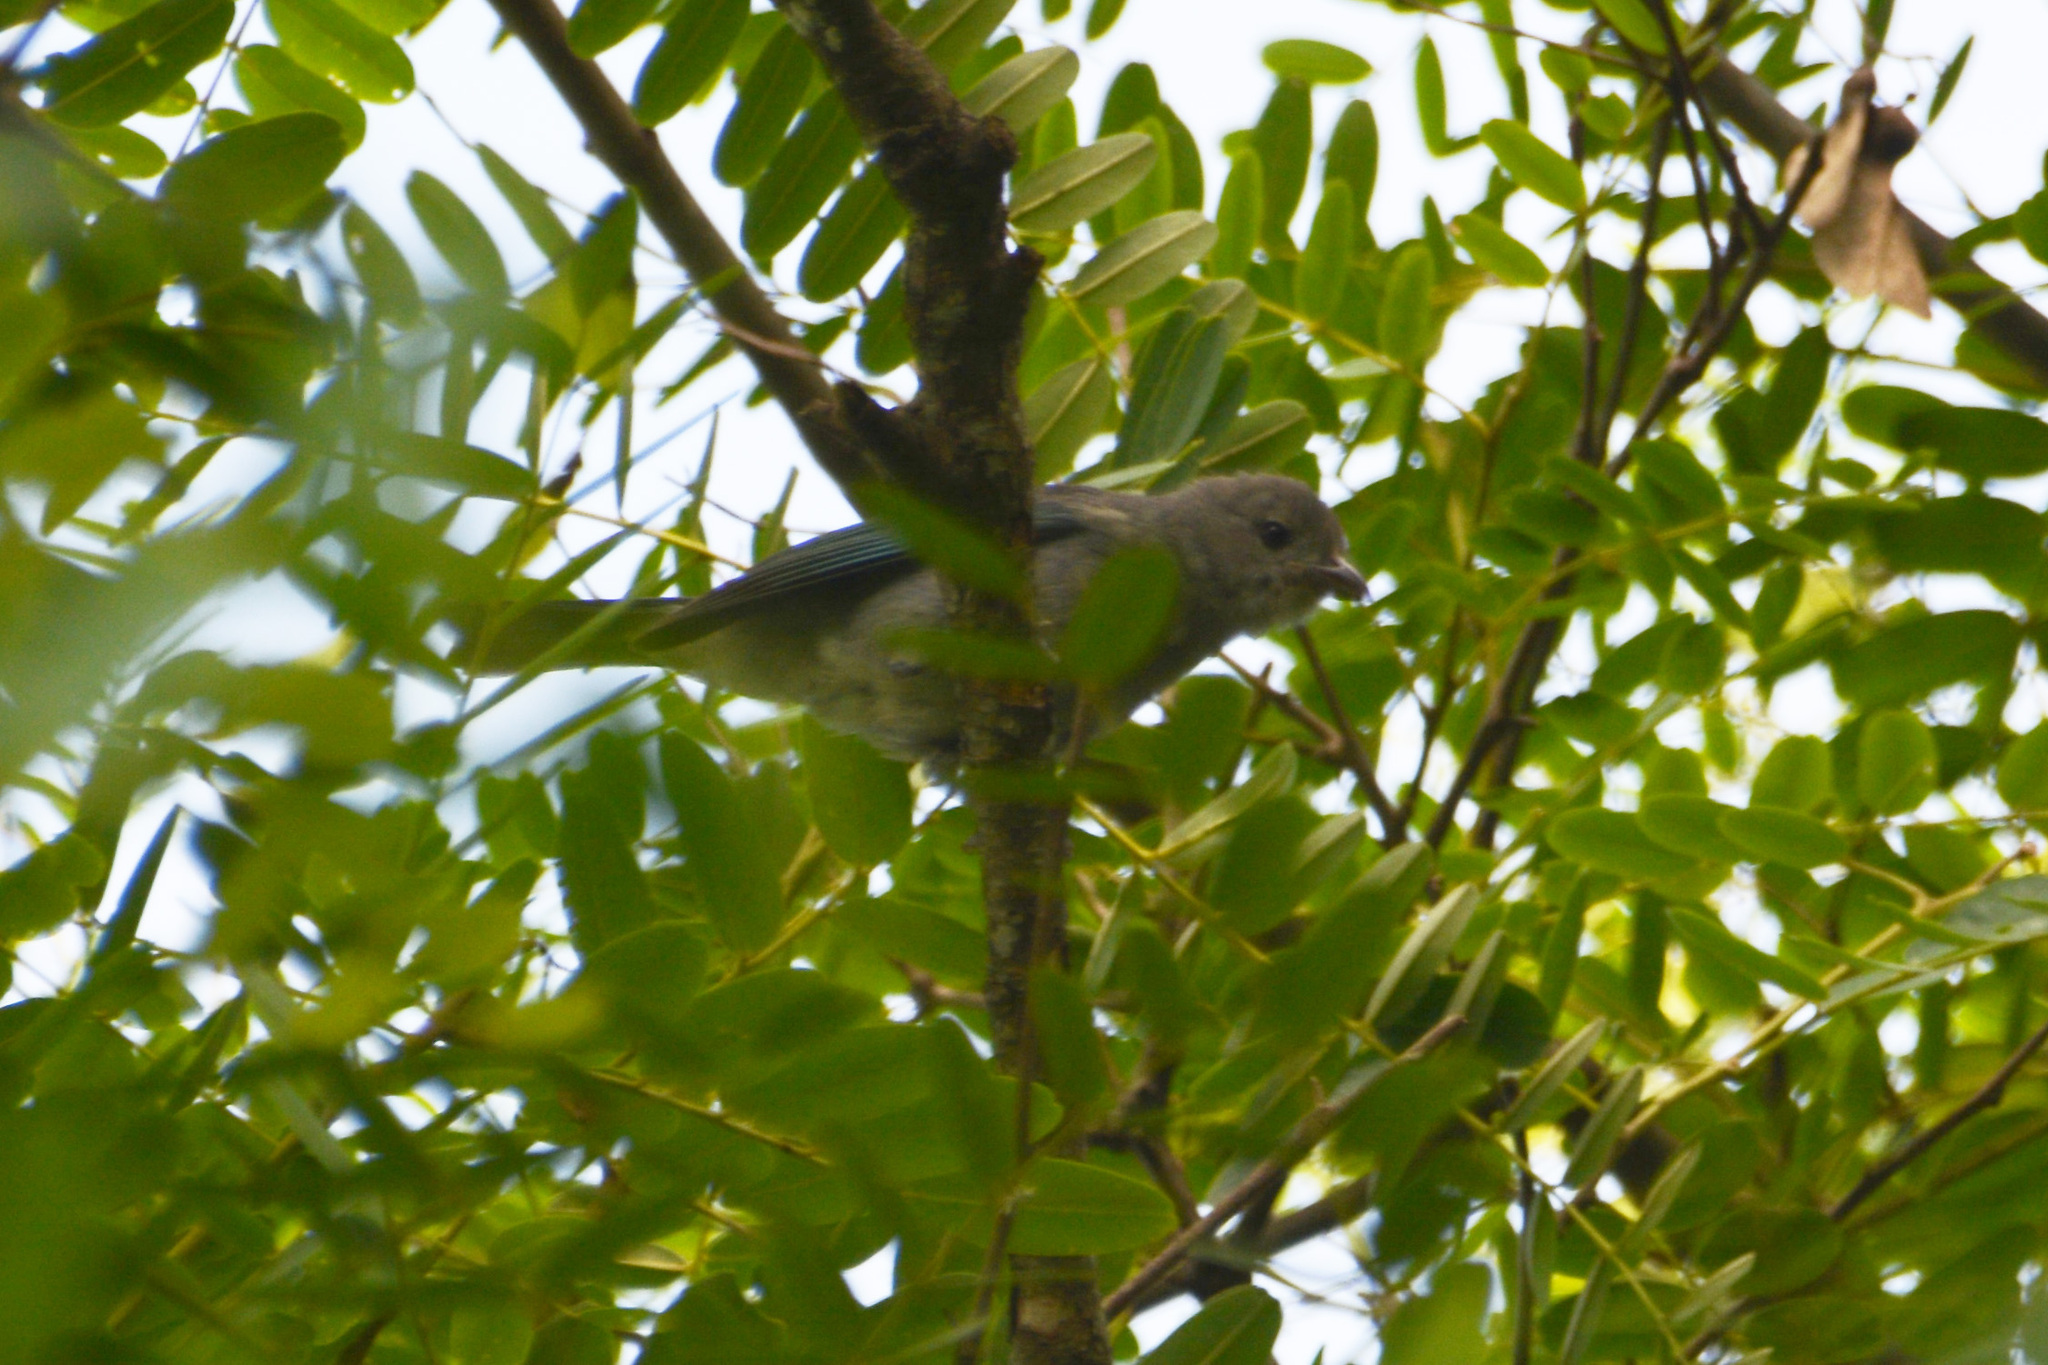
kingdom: Animalia
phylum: Chordata
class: Aves
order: Passeriformes
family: Thraupidae
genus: Thraupis
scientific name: Thraupis sayaca
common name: Sayaca tanager
